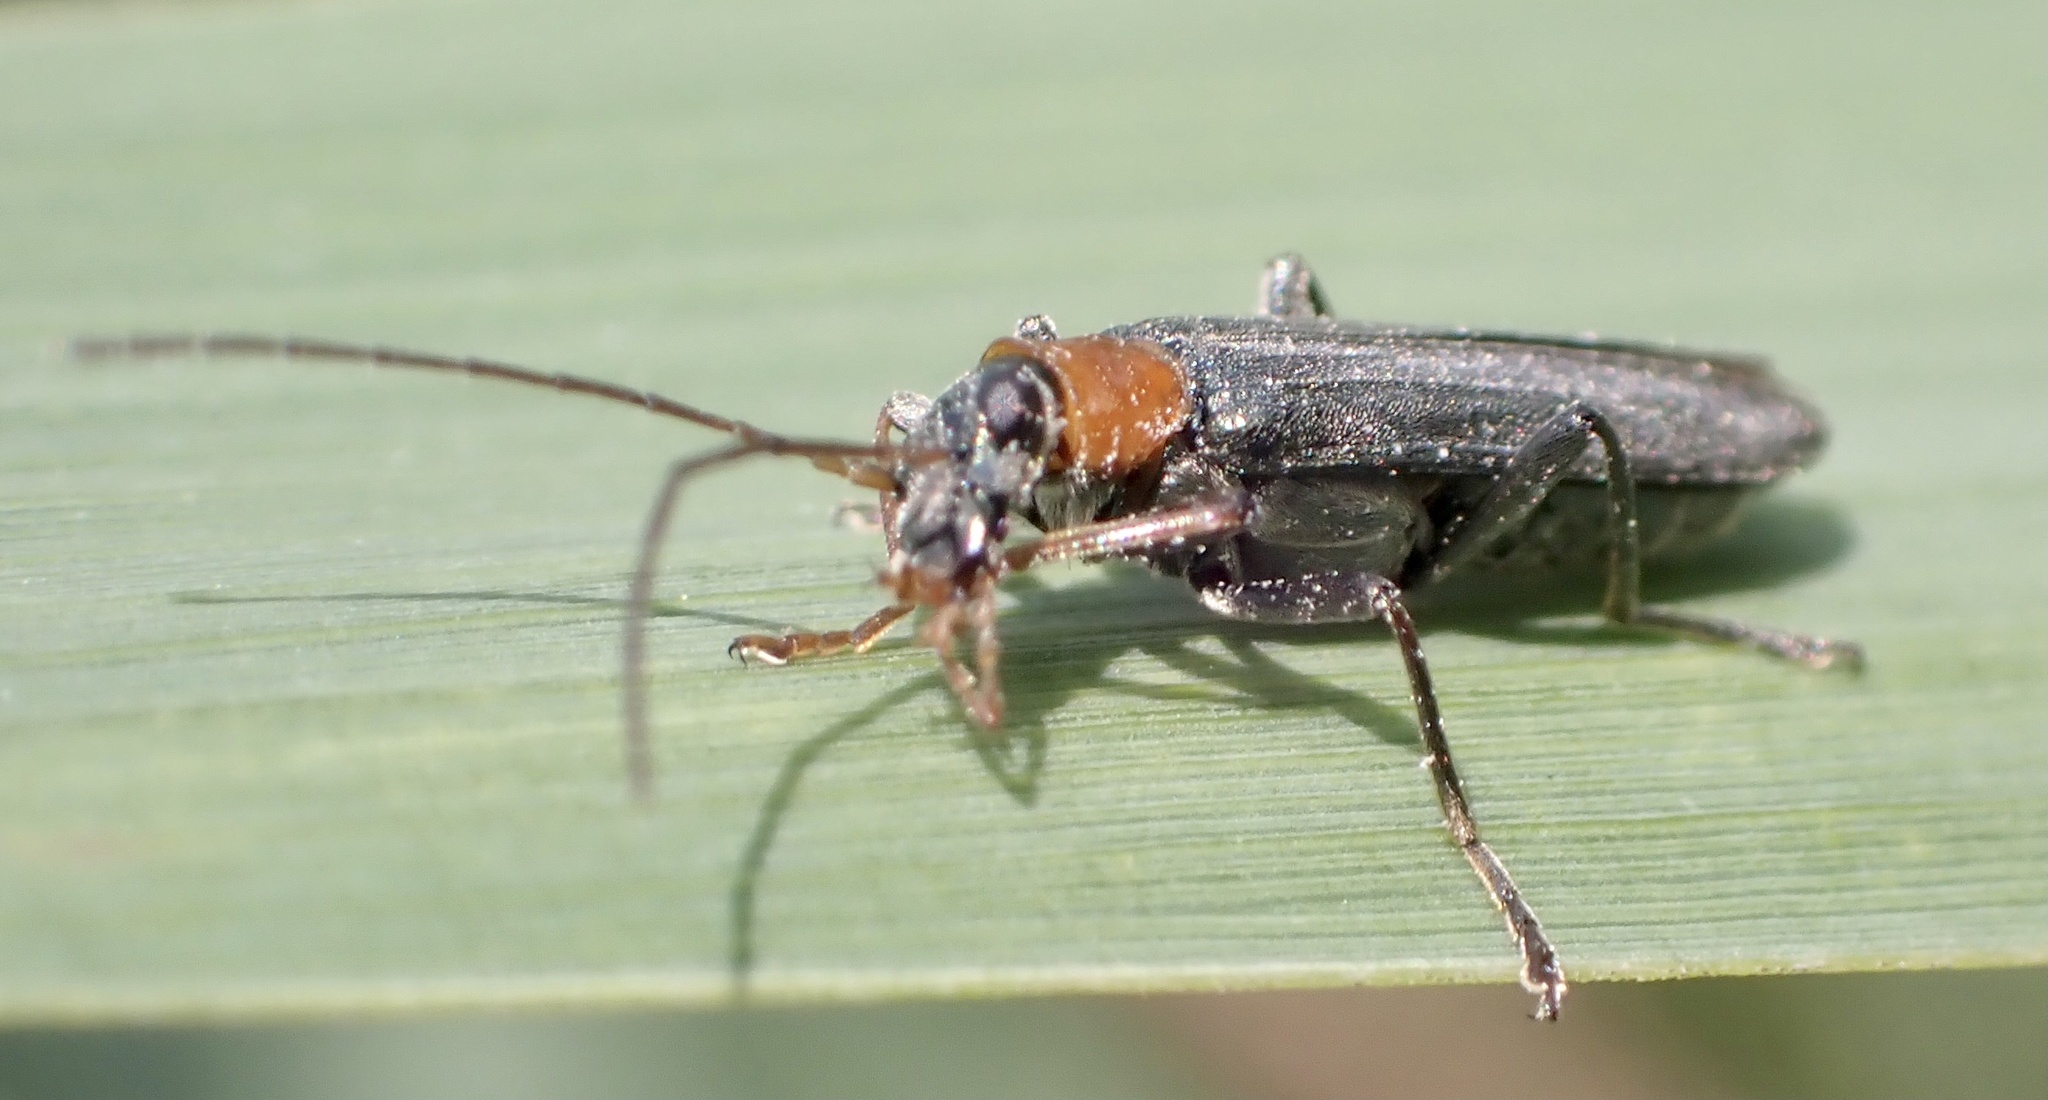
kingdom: Animalia
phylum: Arthropoda
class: Insecta
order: Coleoptera
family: Oedemeridae
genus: Oedemera
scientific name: Oedemera croceicollis
